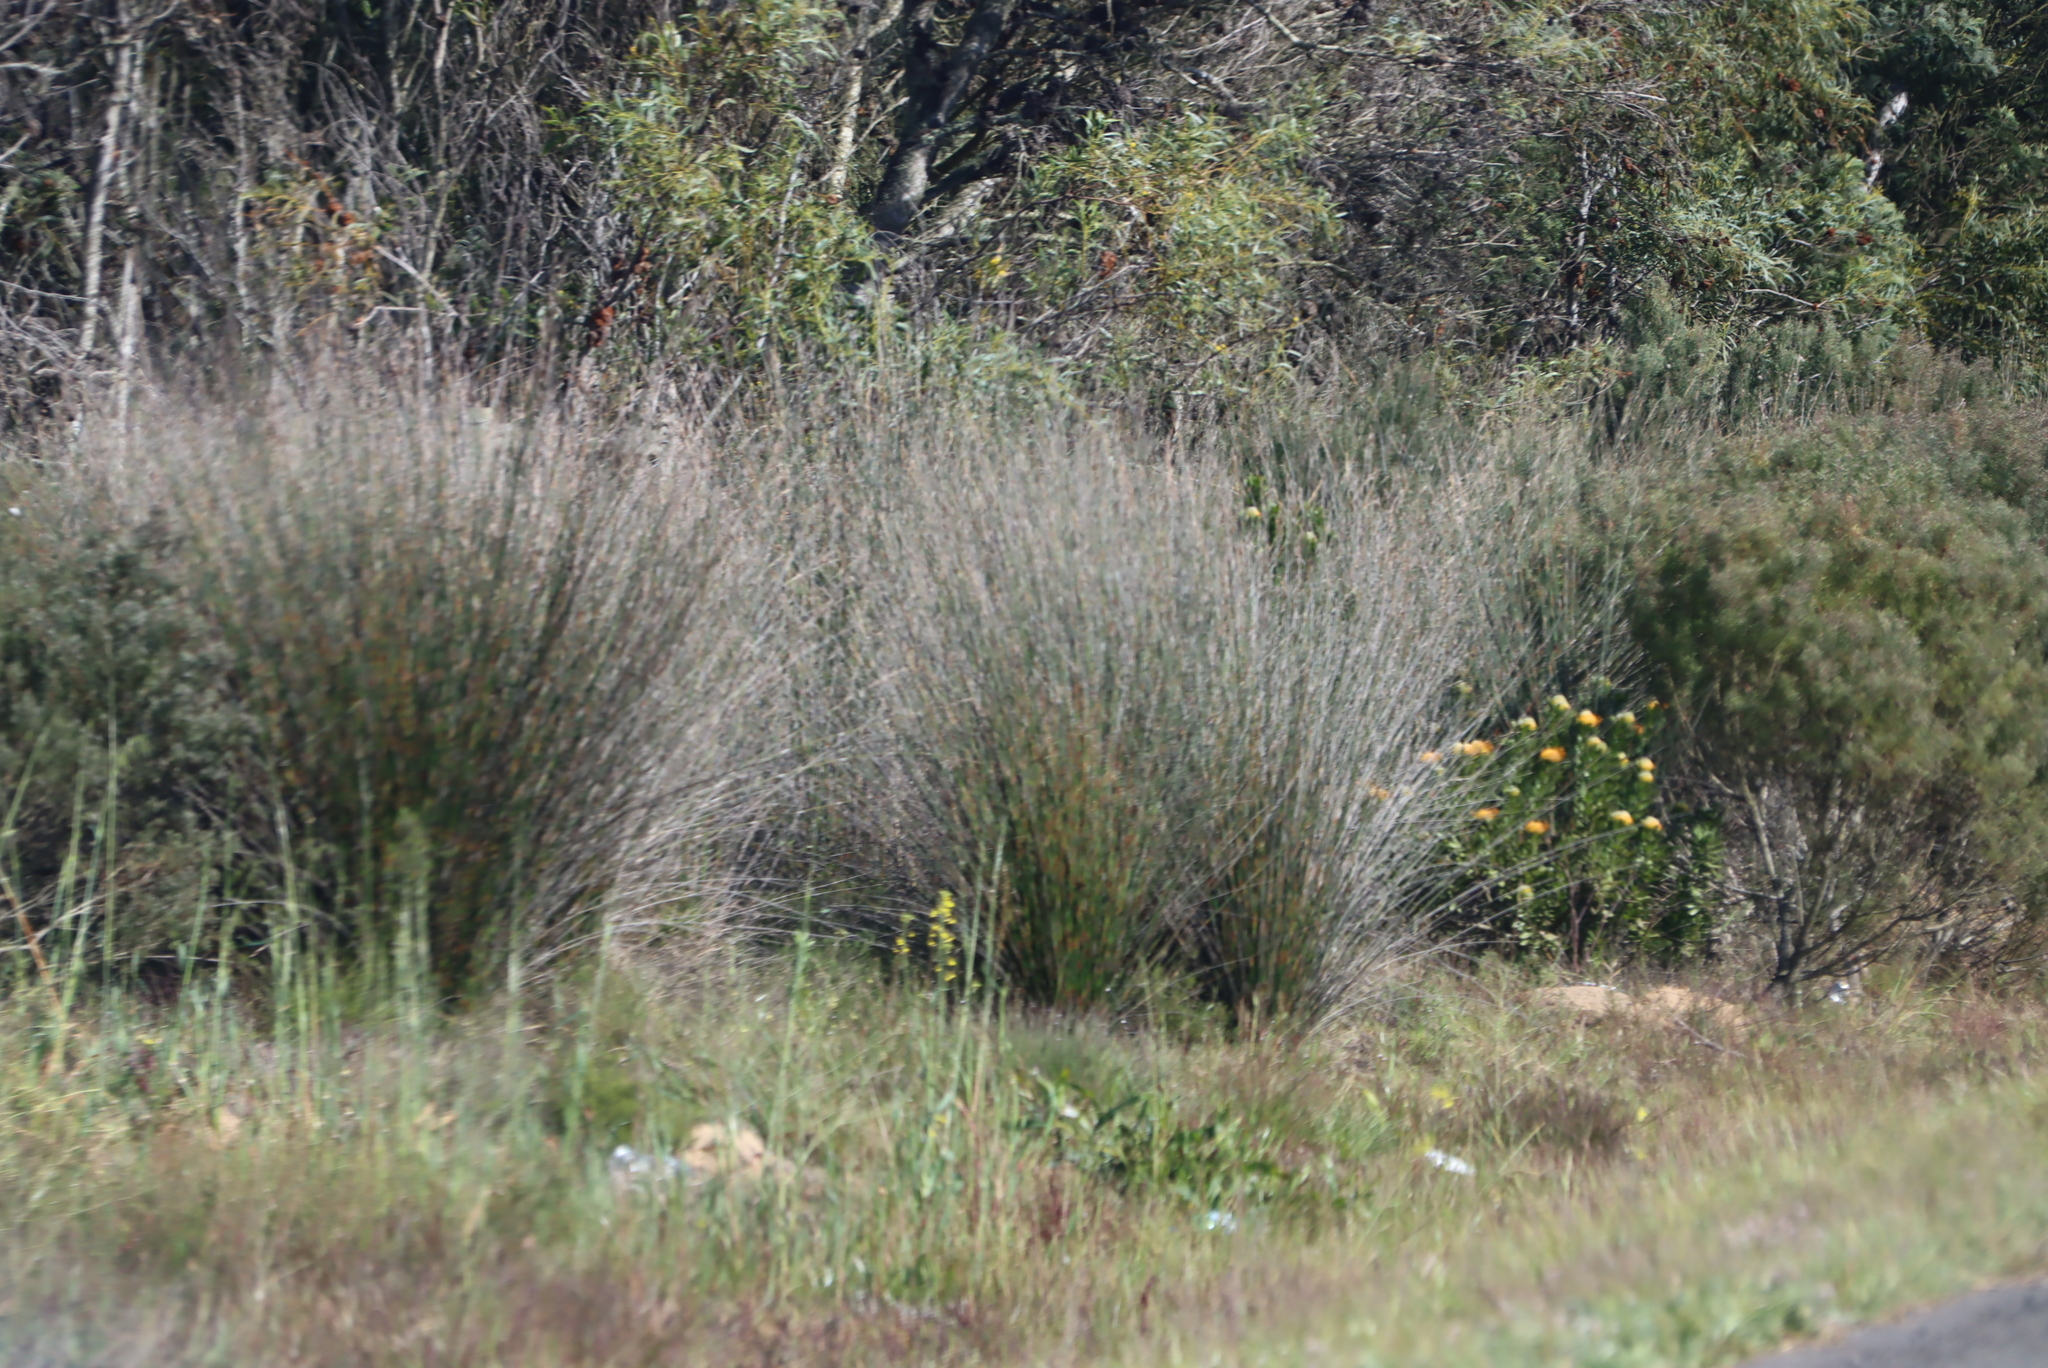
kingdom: Plantae
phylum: Tracheophyta
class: Liliopsida
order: Poales
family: Restionaceae
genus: Thamnochortus
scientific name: Thamnochortus insignis
